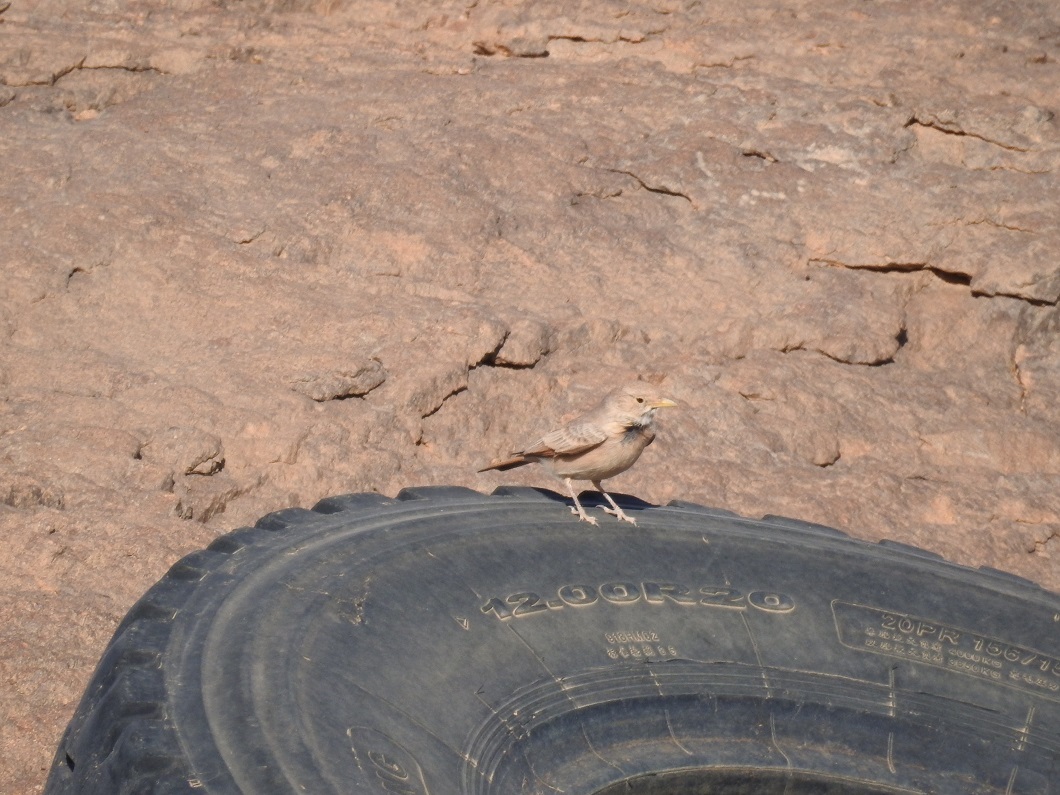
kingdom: Animalia
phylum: Chordata
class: Aves
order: Passeriformes
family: Alaudidae
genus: Ammomanes
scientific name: Ammomanes deserti
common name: Desert lark
